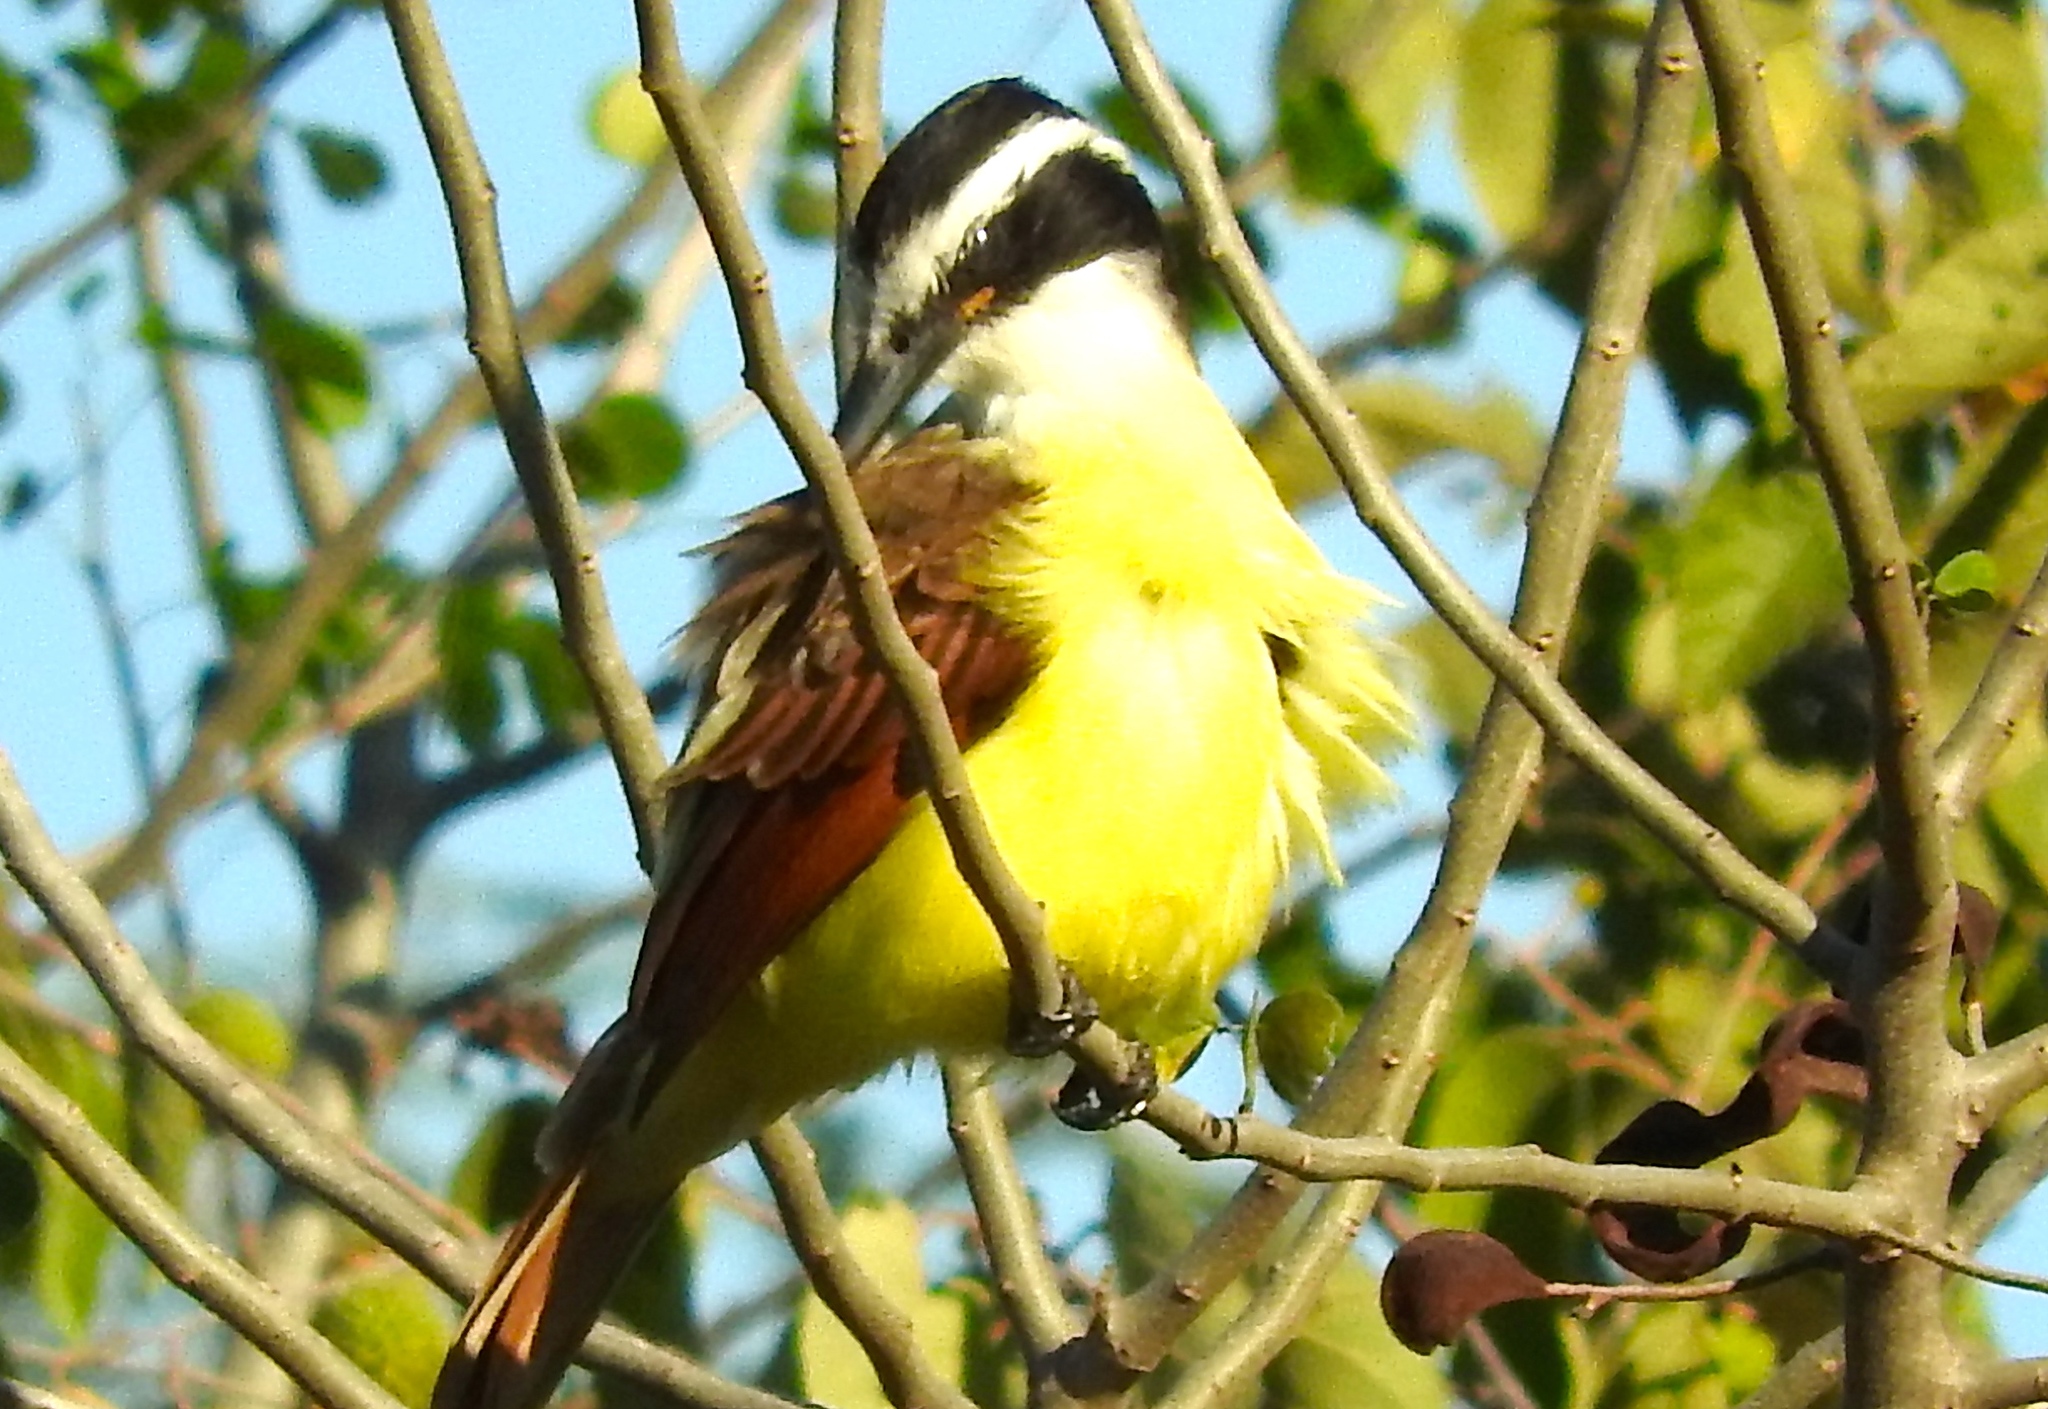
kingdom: Animalia
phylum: Chordata
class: Aves
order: Passeriformes
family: Tyrannidae
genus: Pitangus
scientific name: Pitangus sulphuratus
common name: Great kiskadee
